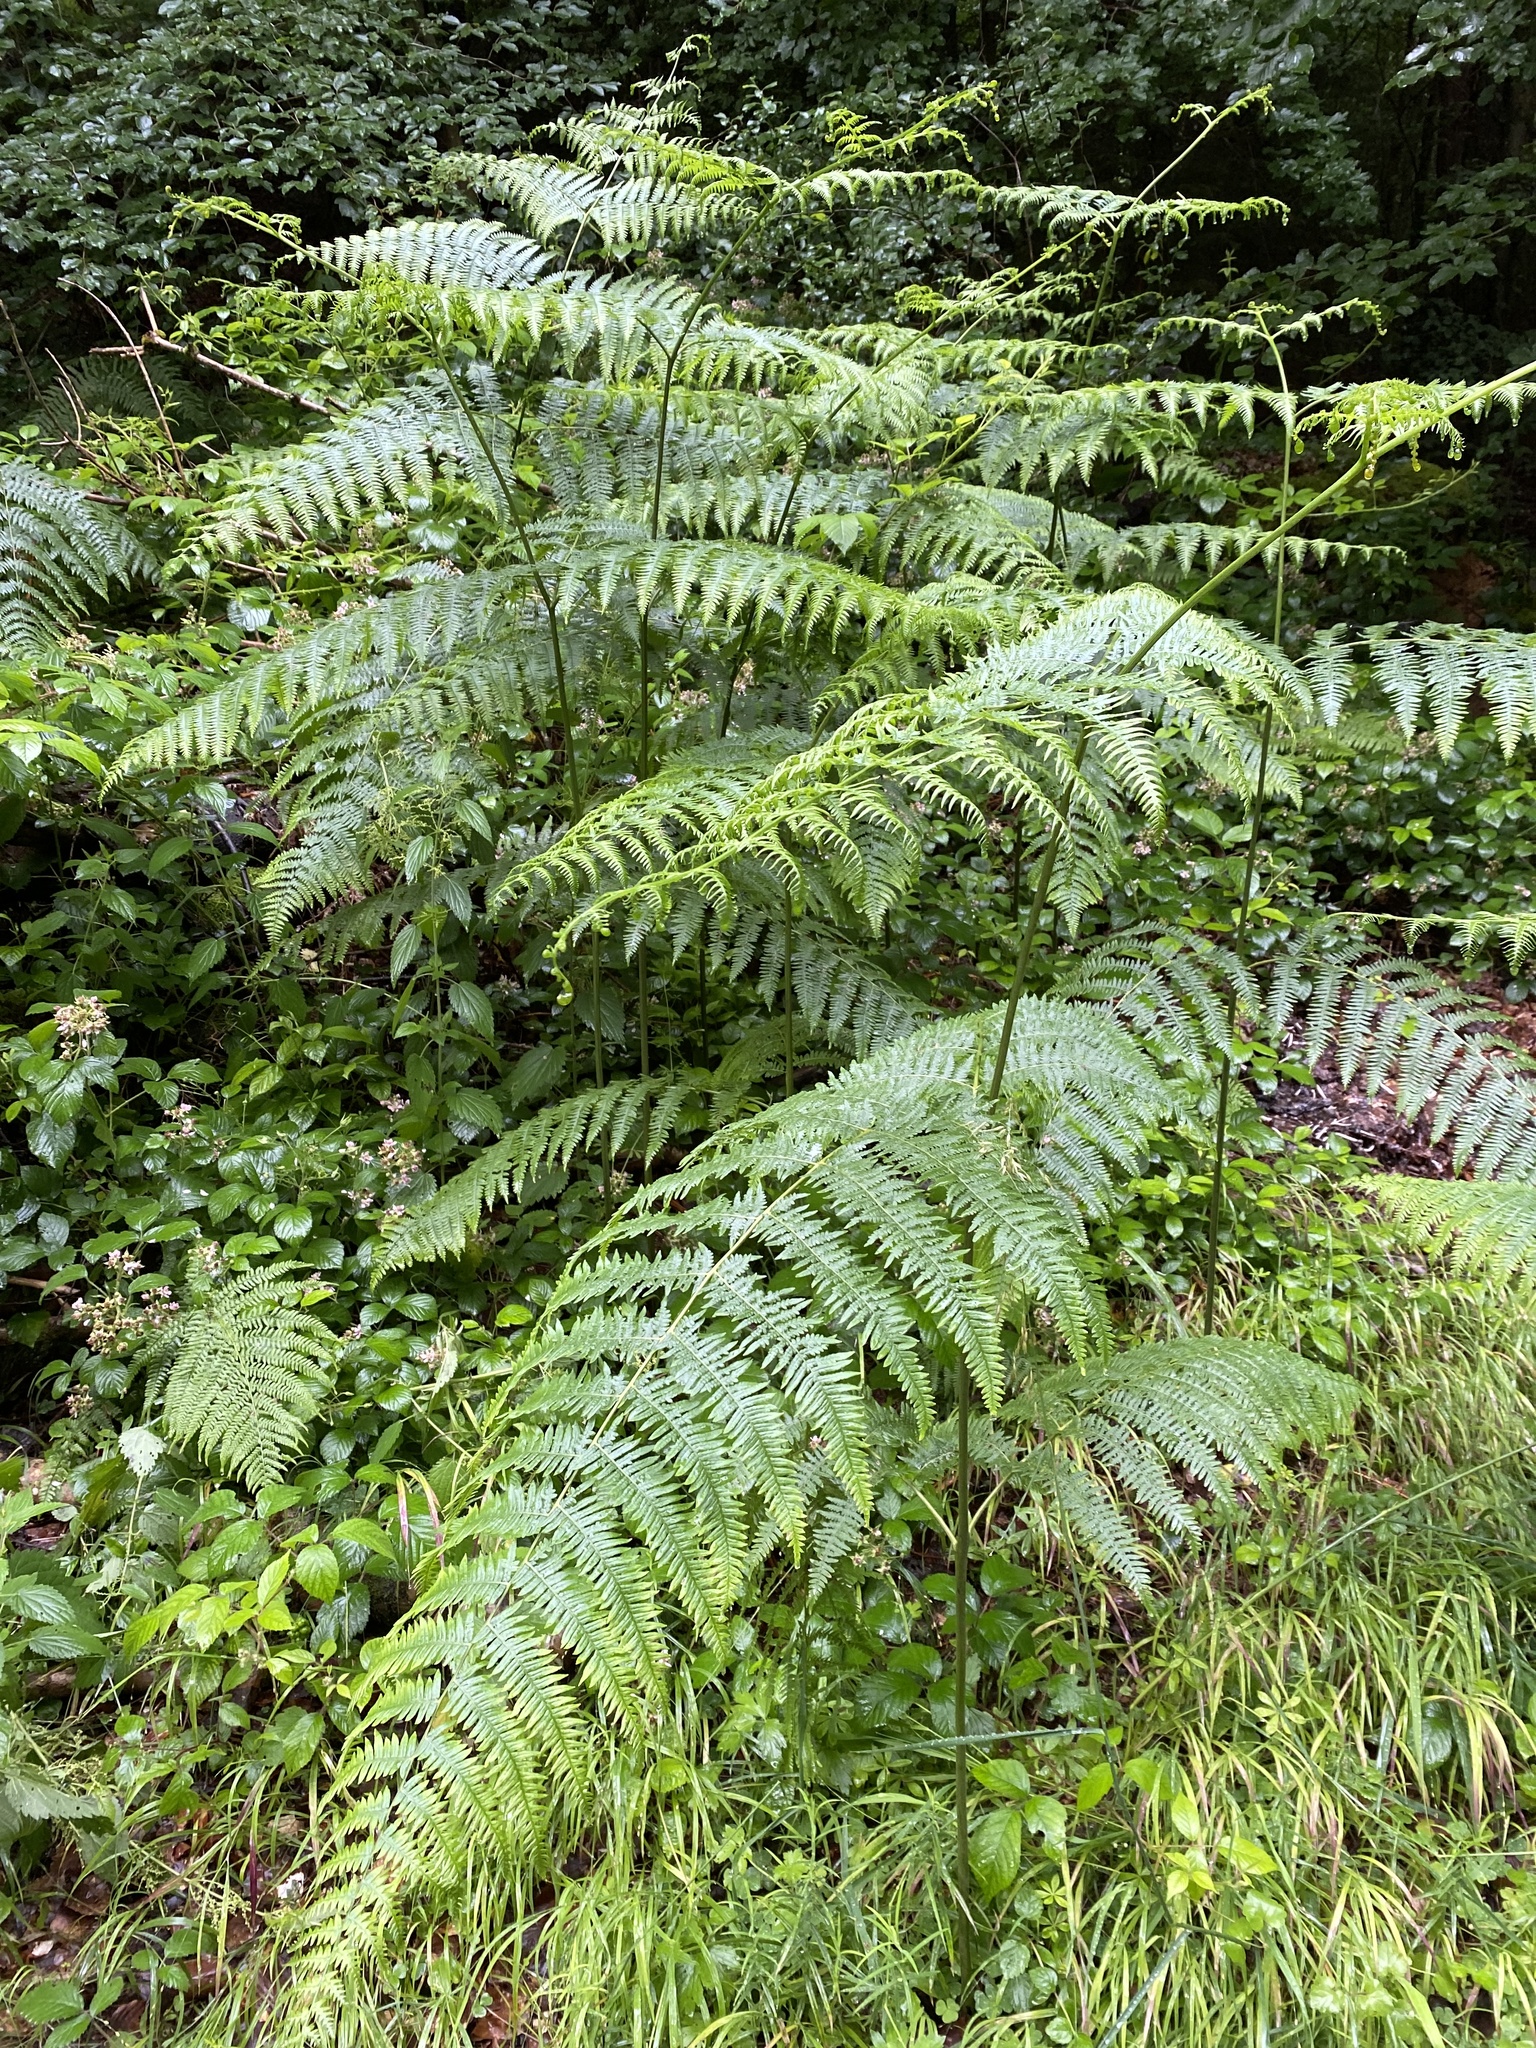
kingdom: Plantae
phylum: Tracheophyta
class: Polypodiopsida
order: Polypodiales
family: Dennstaedtiaceae
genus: Pteridium
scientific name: Pteridium aquilinum
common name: Bracken
